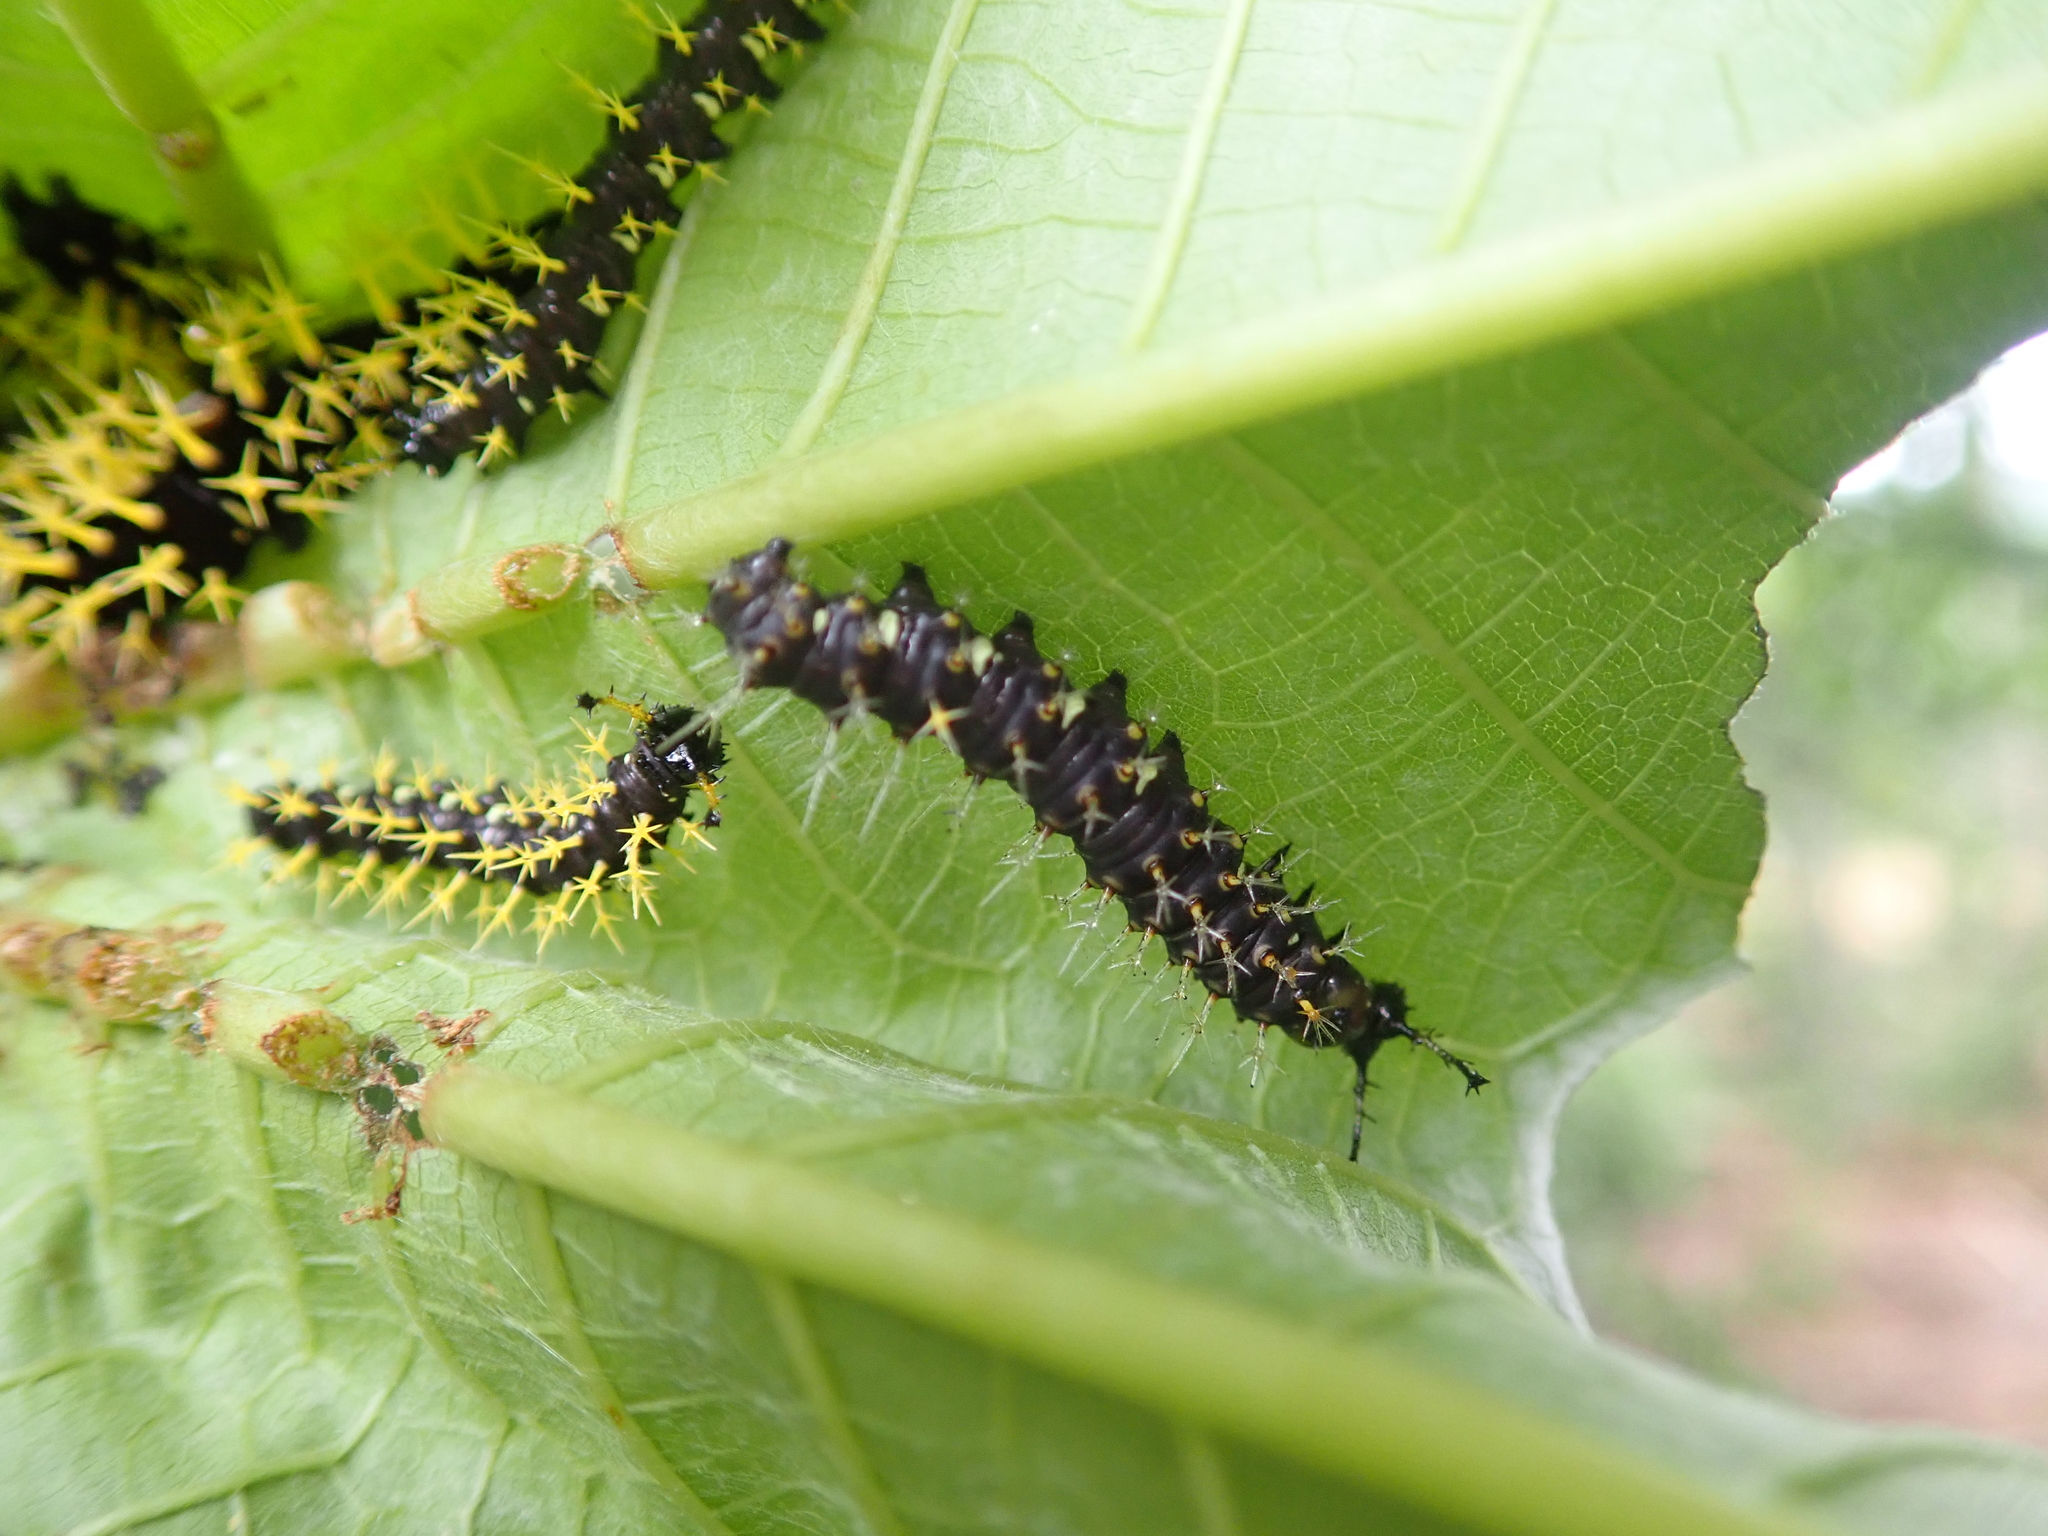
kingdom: Animalia
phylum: Arthropoda
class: Insecta
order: Lepidoptera
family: Nymphalidae
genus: Colobura
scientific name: Colobura dirce
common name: Dirce beauty
